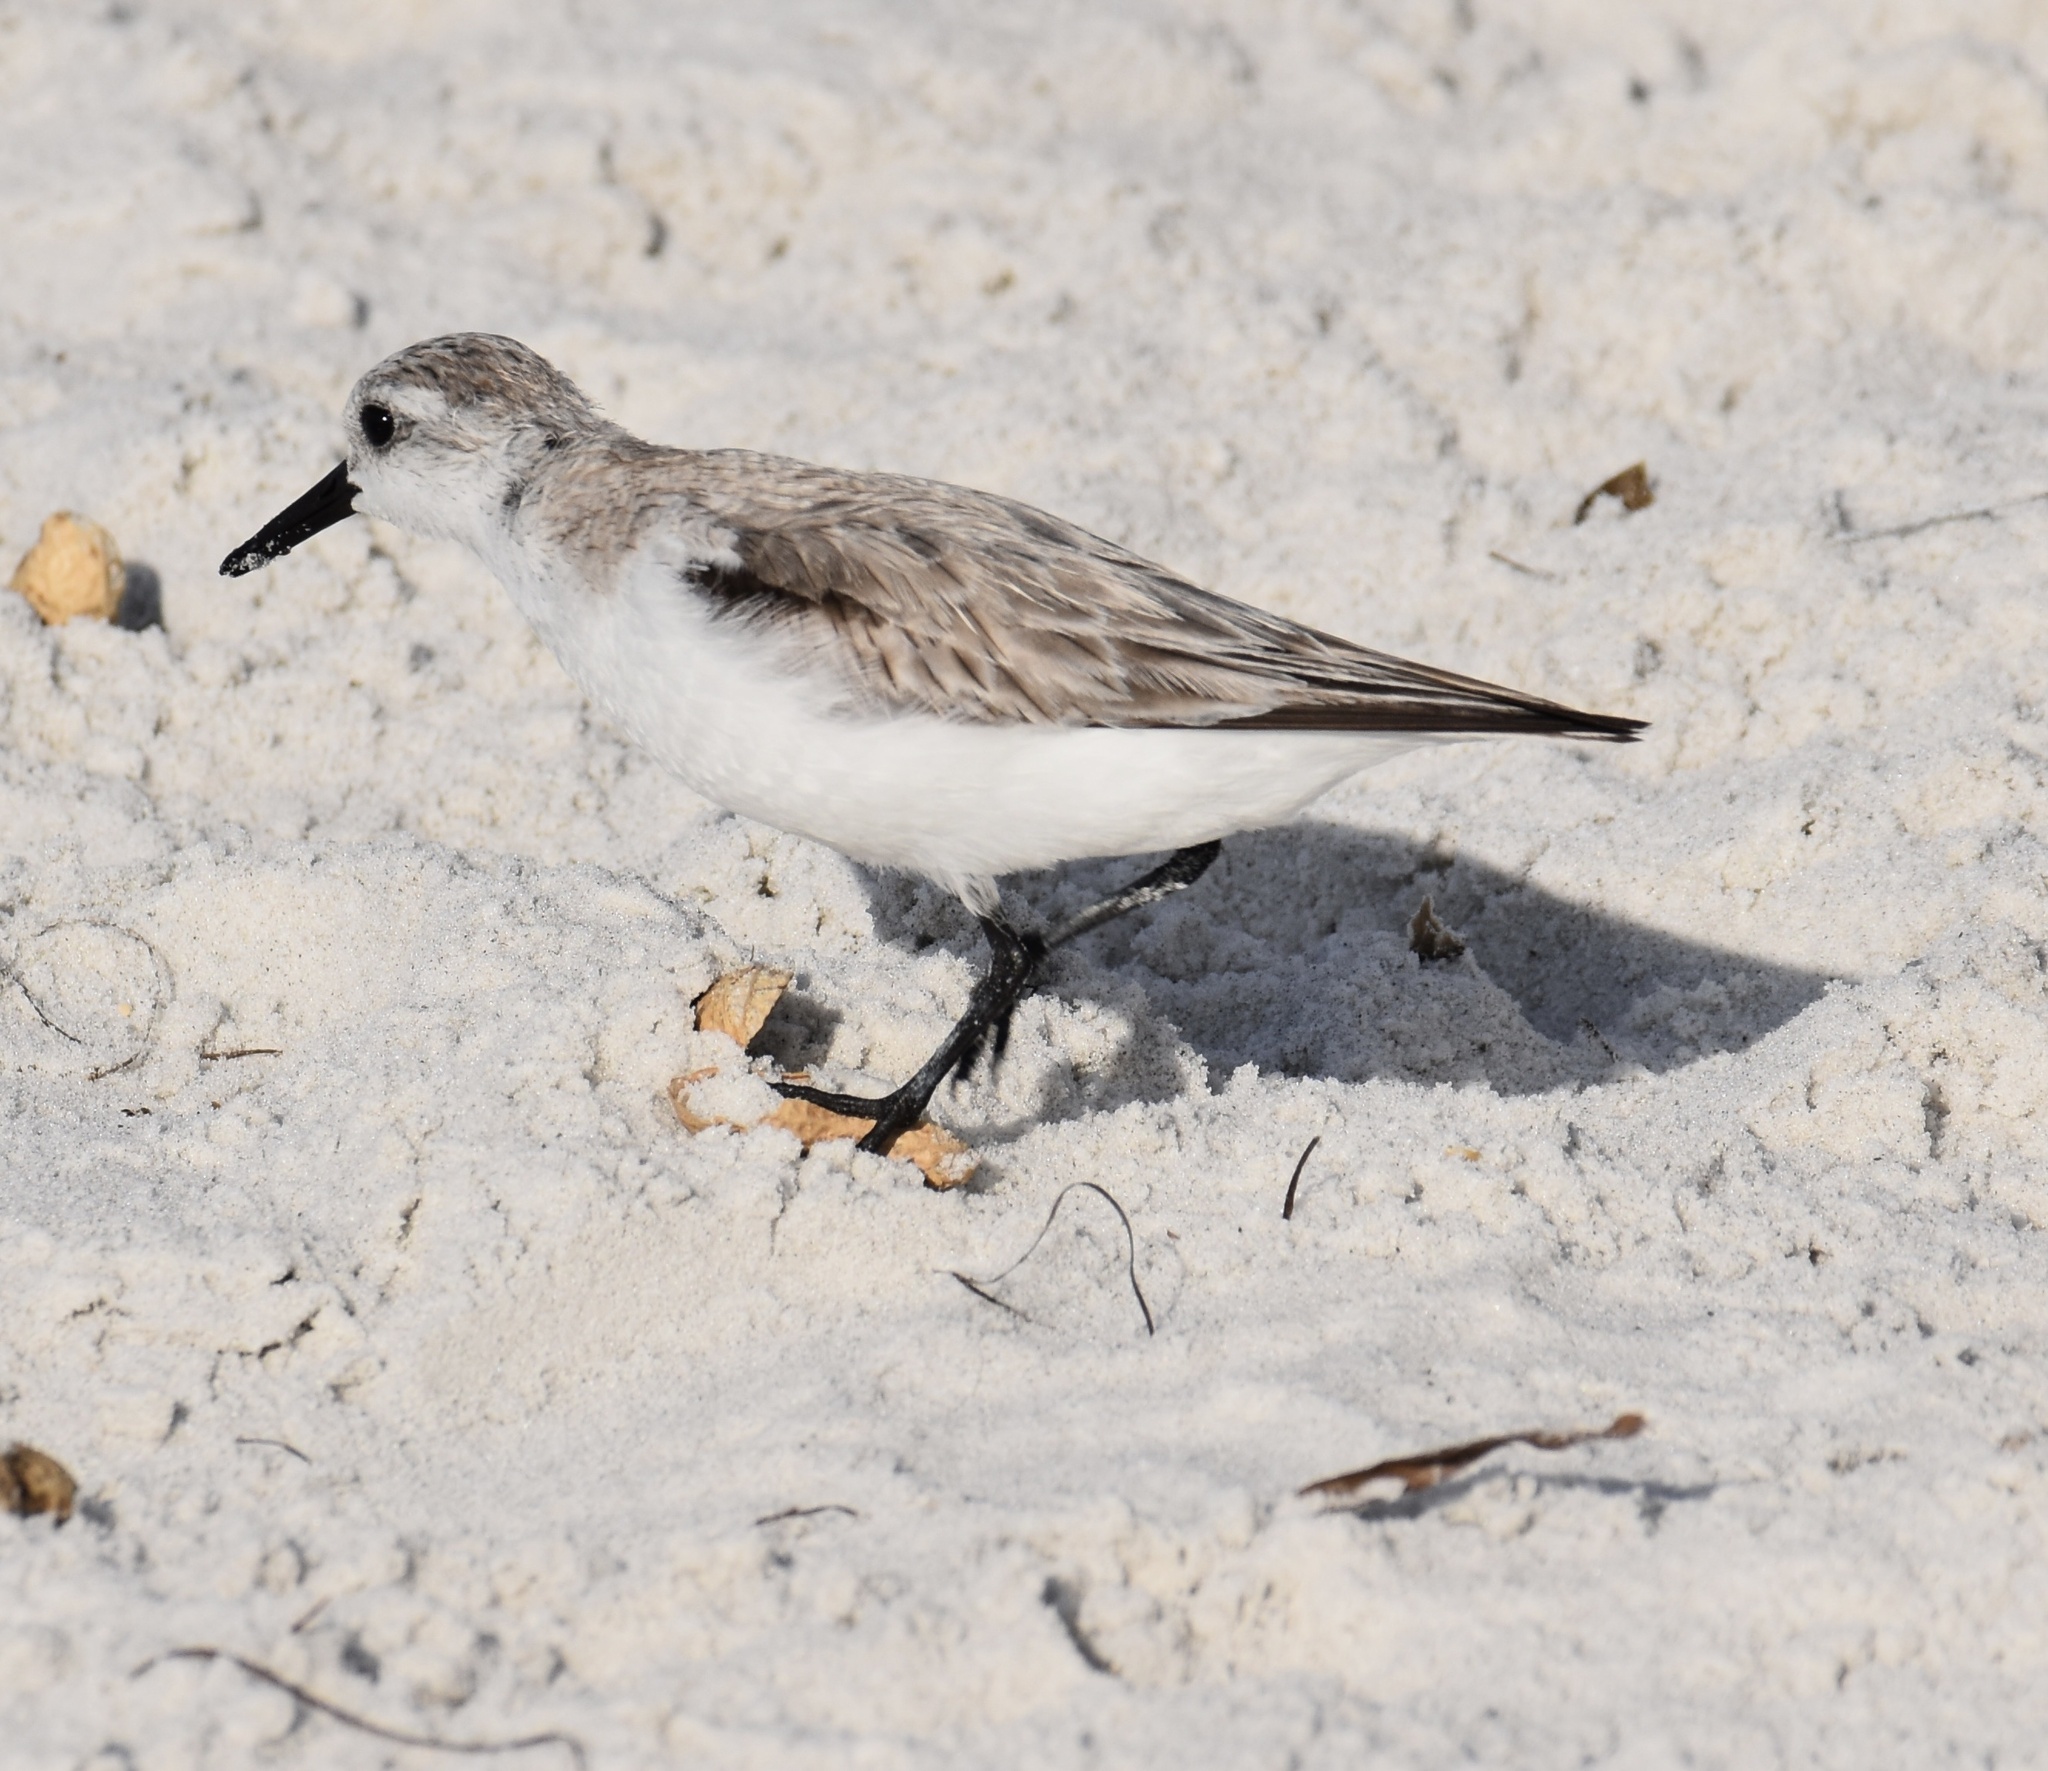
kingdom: Animalia
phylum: Chordata
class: Aves
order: Charadriiformes
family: Scolopacidae
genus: Calidris
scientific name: Calidris alba
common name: Sanderling
